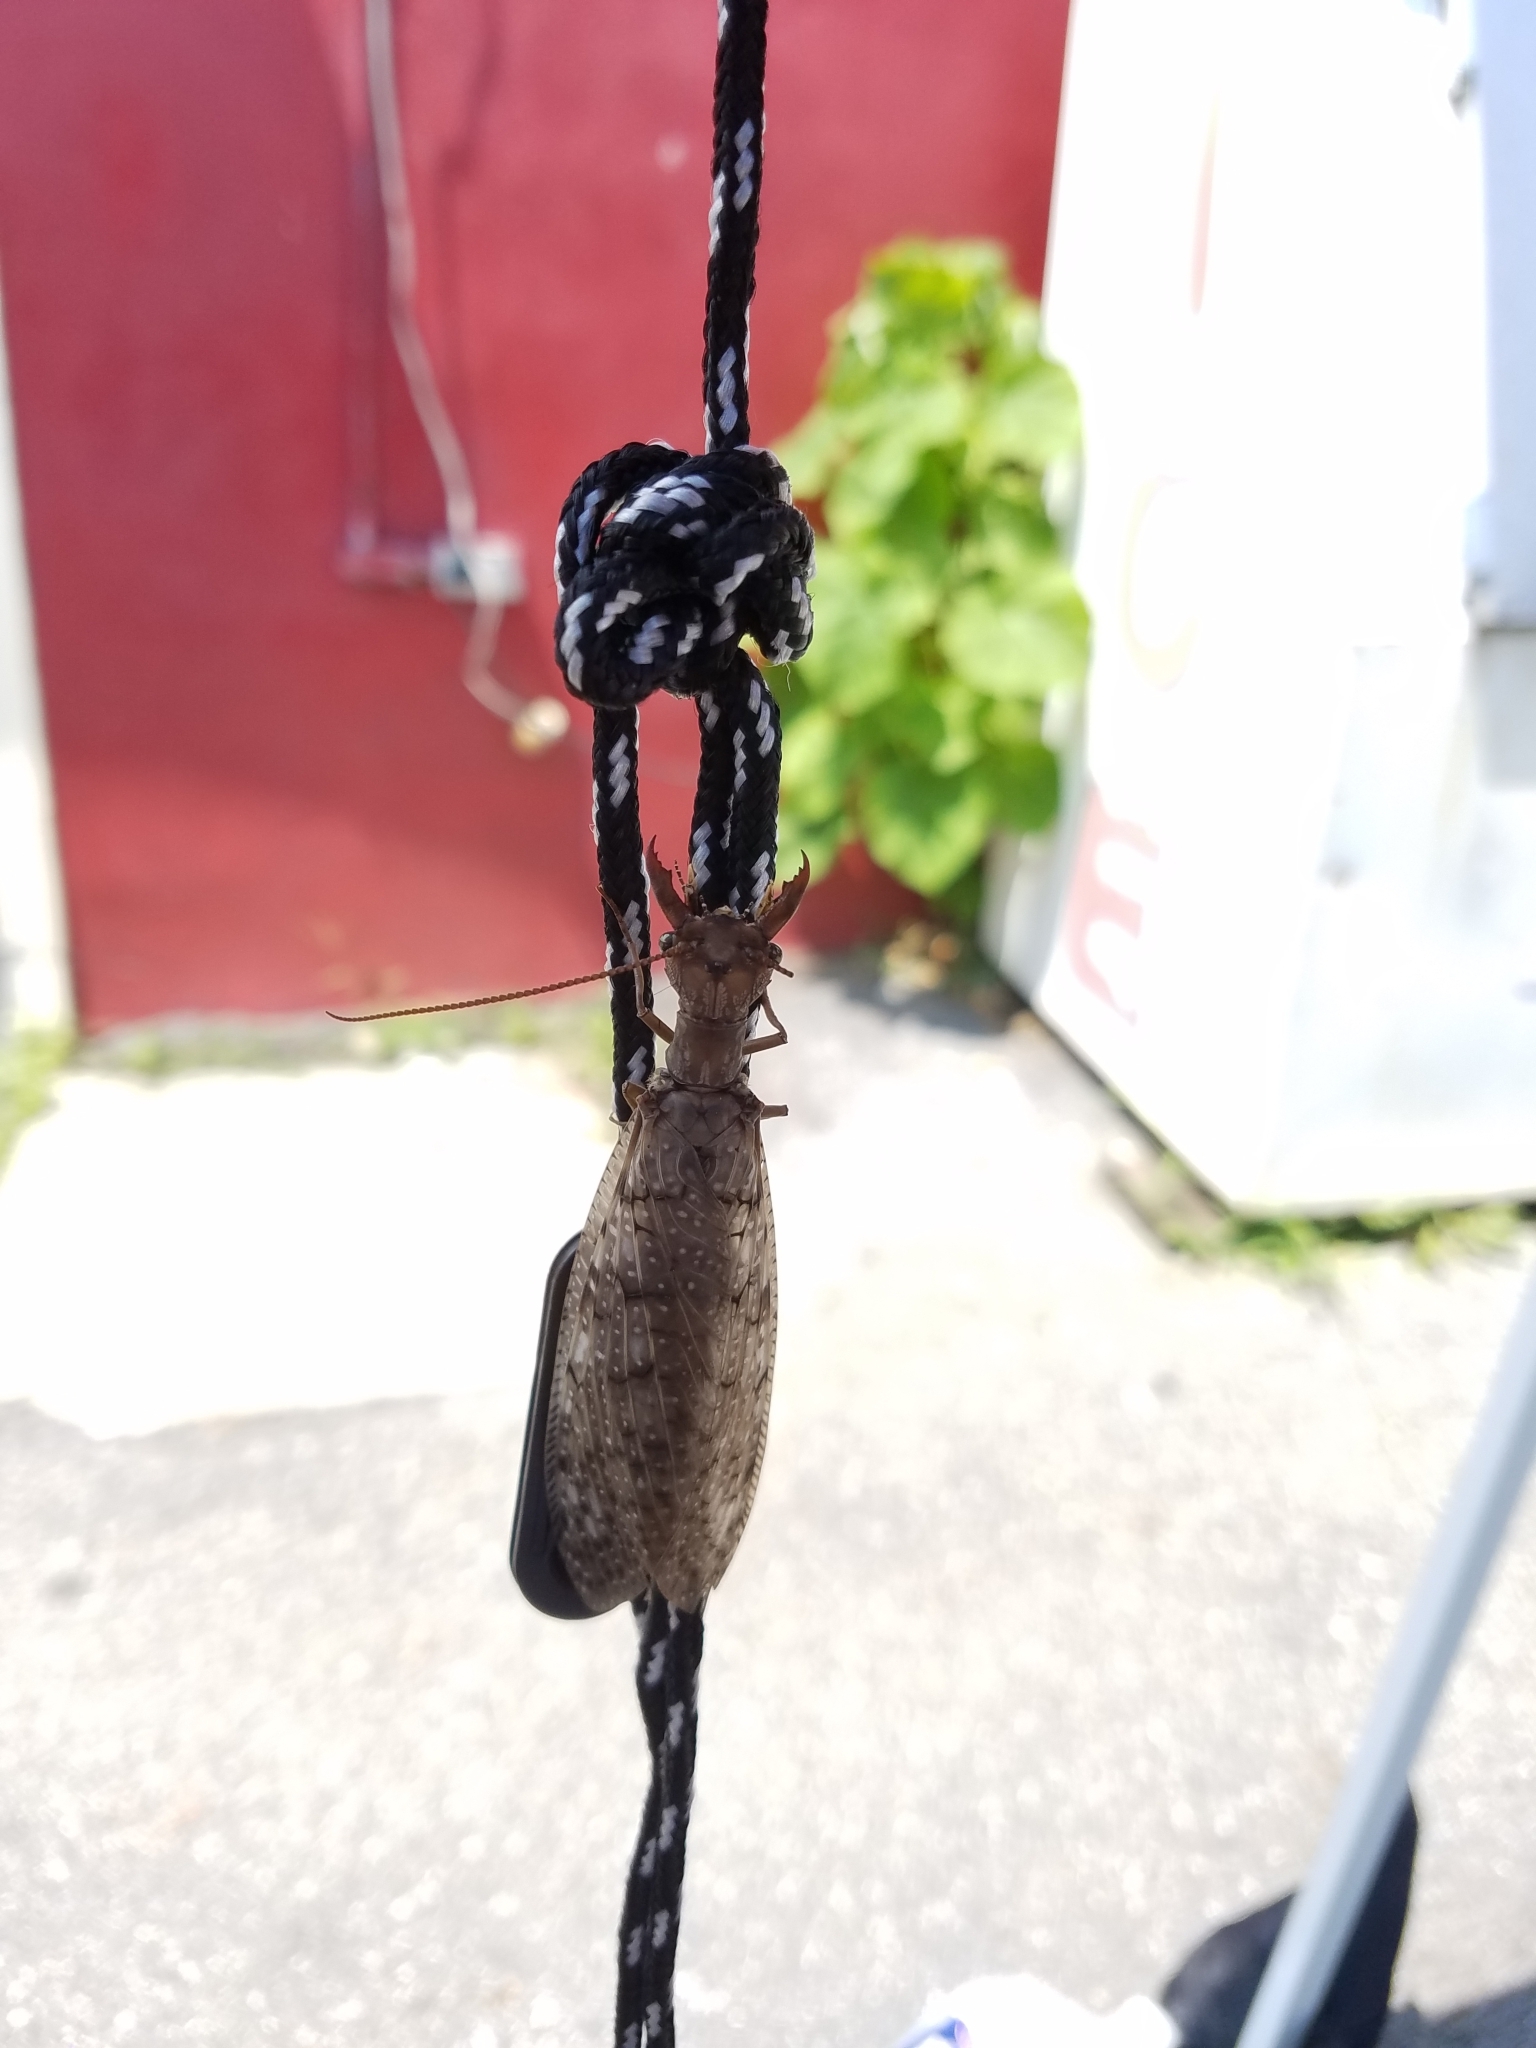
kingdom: Animalia
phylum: Arthropoda
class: Insecta
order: Megaloptera
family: Corydalidae
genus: Corydalus
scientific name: Corydalus cornutus
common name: Dobsonfly
